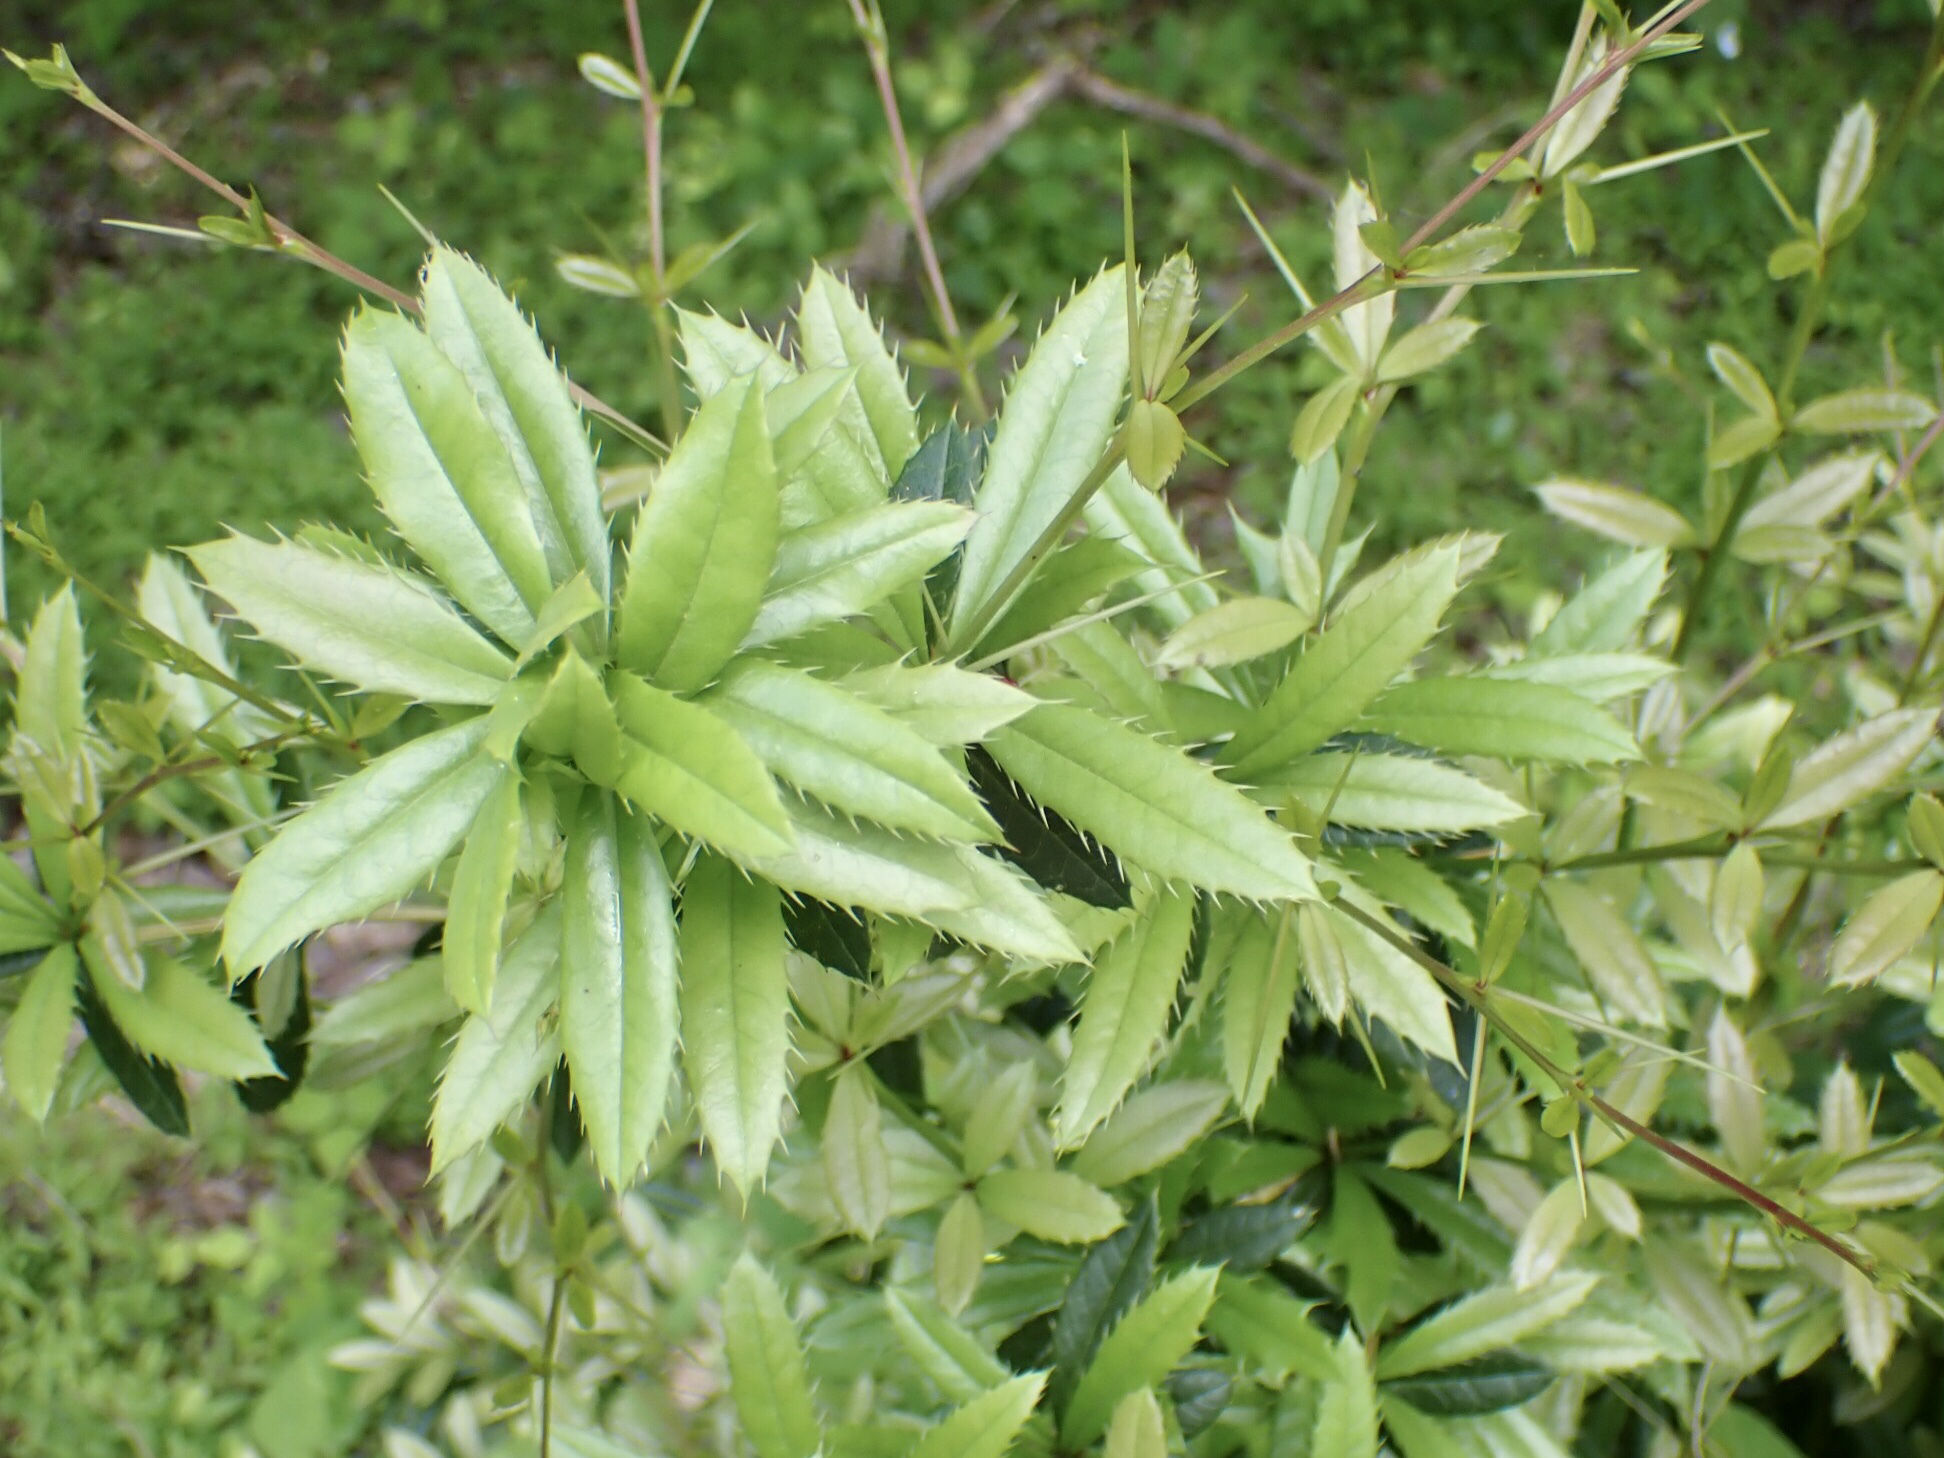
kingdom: Plantae
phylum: Tracheophyta
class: Magnoliopsida
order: Ranunculales
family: Berberidaceae
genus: Berberis
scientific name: Berberis julianae
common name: Wintergreen barberry
